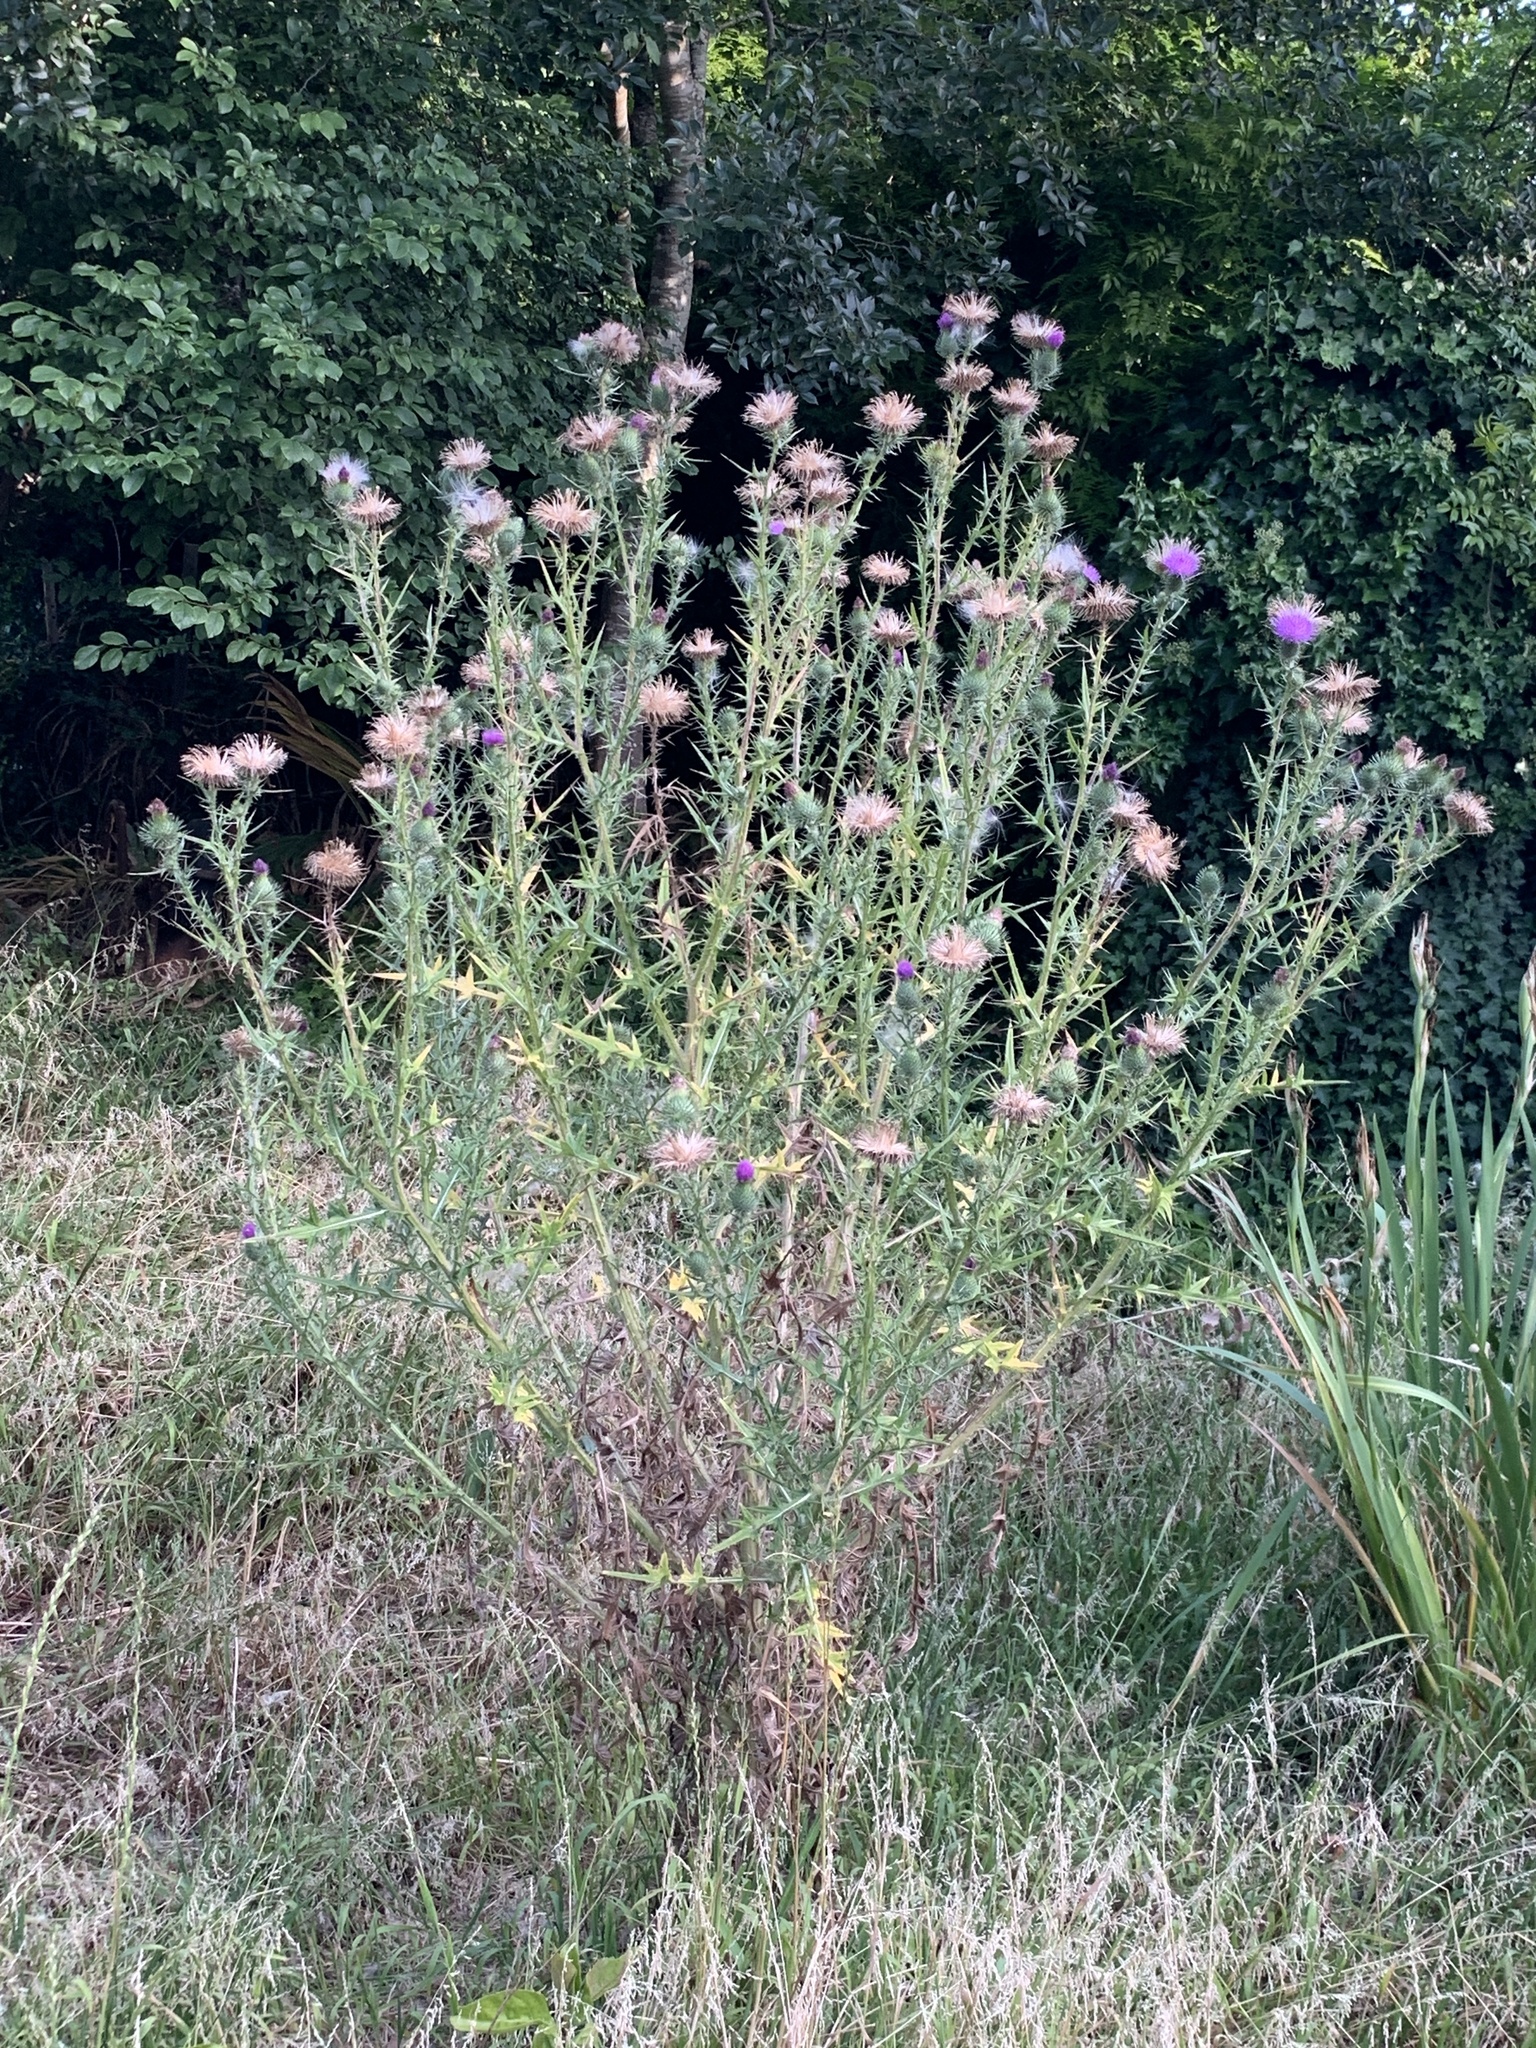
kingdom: Plantae
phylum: Tracheophyta
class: Magnoliopsida
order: Asterales
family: Asteraceae
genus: Cirsium
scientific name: Cirsium vulgare
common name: Bull thistle
